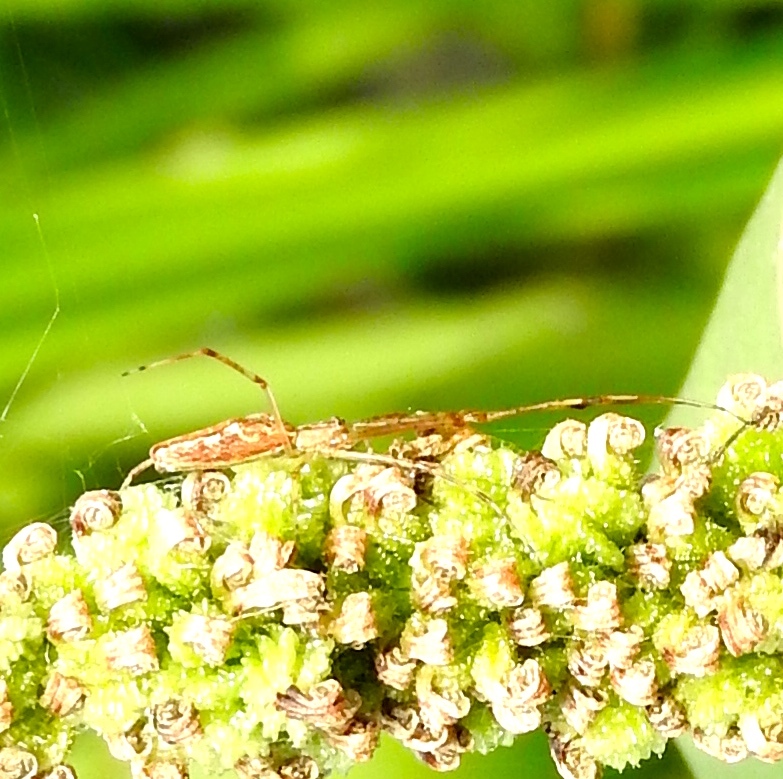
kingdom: Animalia
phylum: Arthropoda
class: Arachnida
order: Araneae
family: Tetragnathidae
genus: Tetragnatha
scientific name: Tetragnatha
